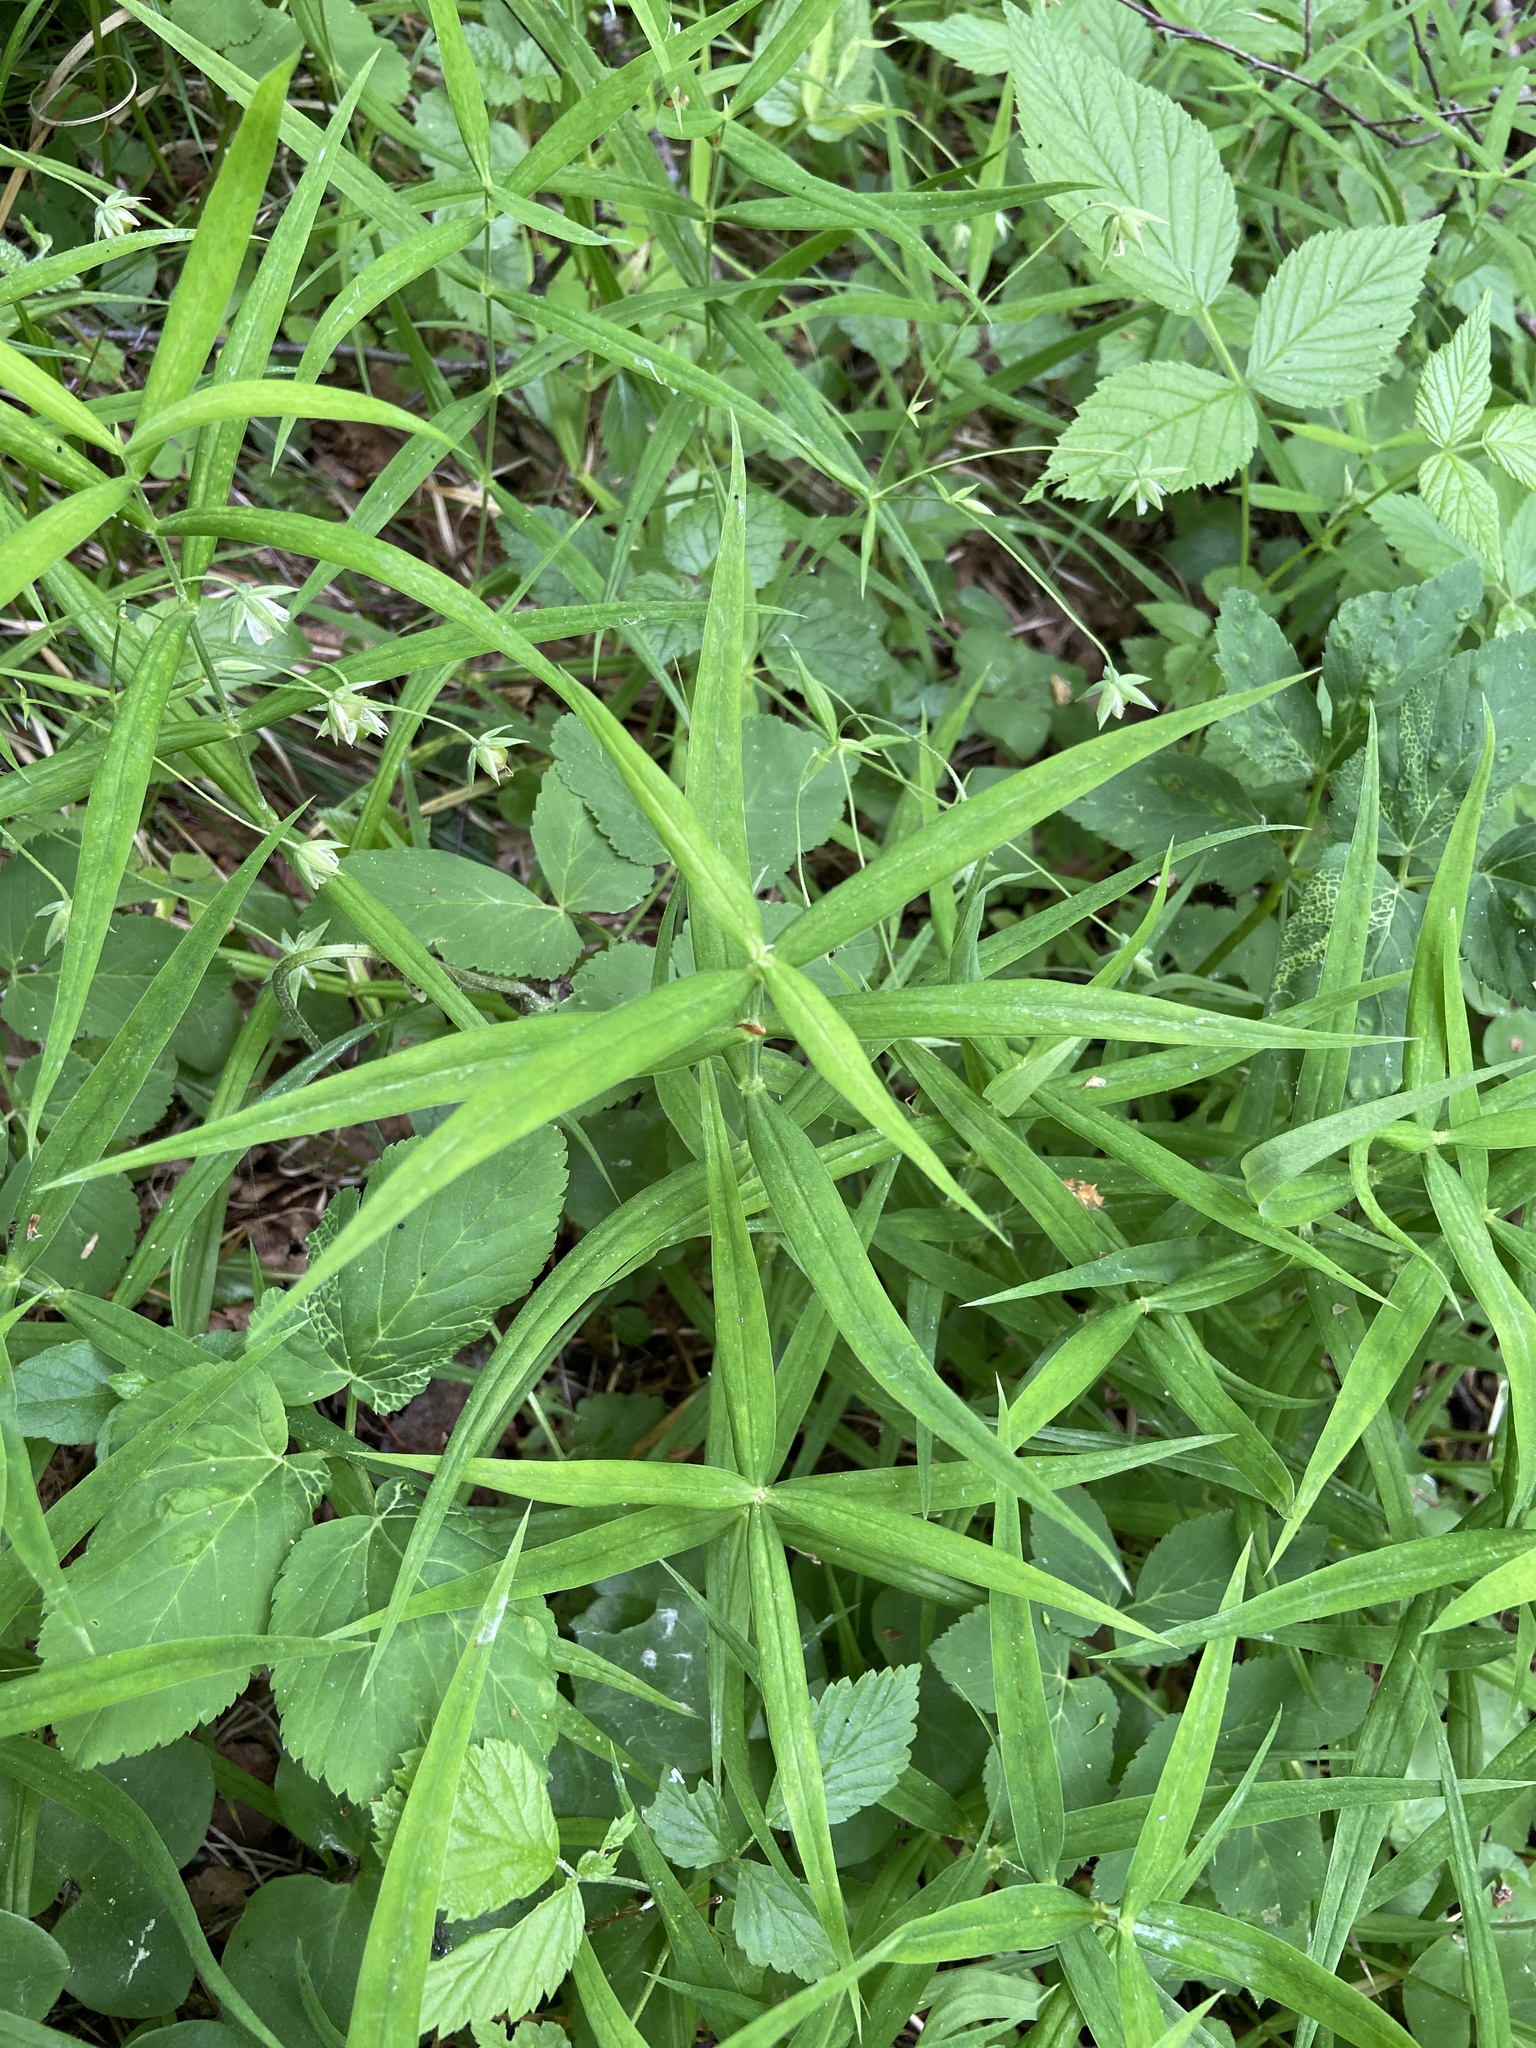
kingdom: Plantae
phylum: Tracheophyta
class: Magnoliopsida
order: Caryophyllales
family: Caryophyllaceae
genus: Rabelera
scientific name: Rabelera holostea
